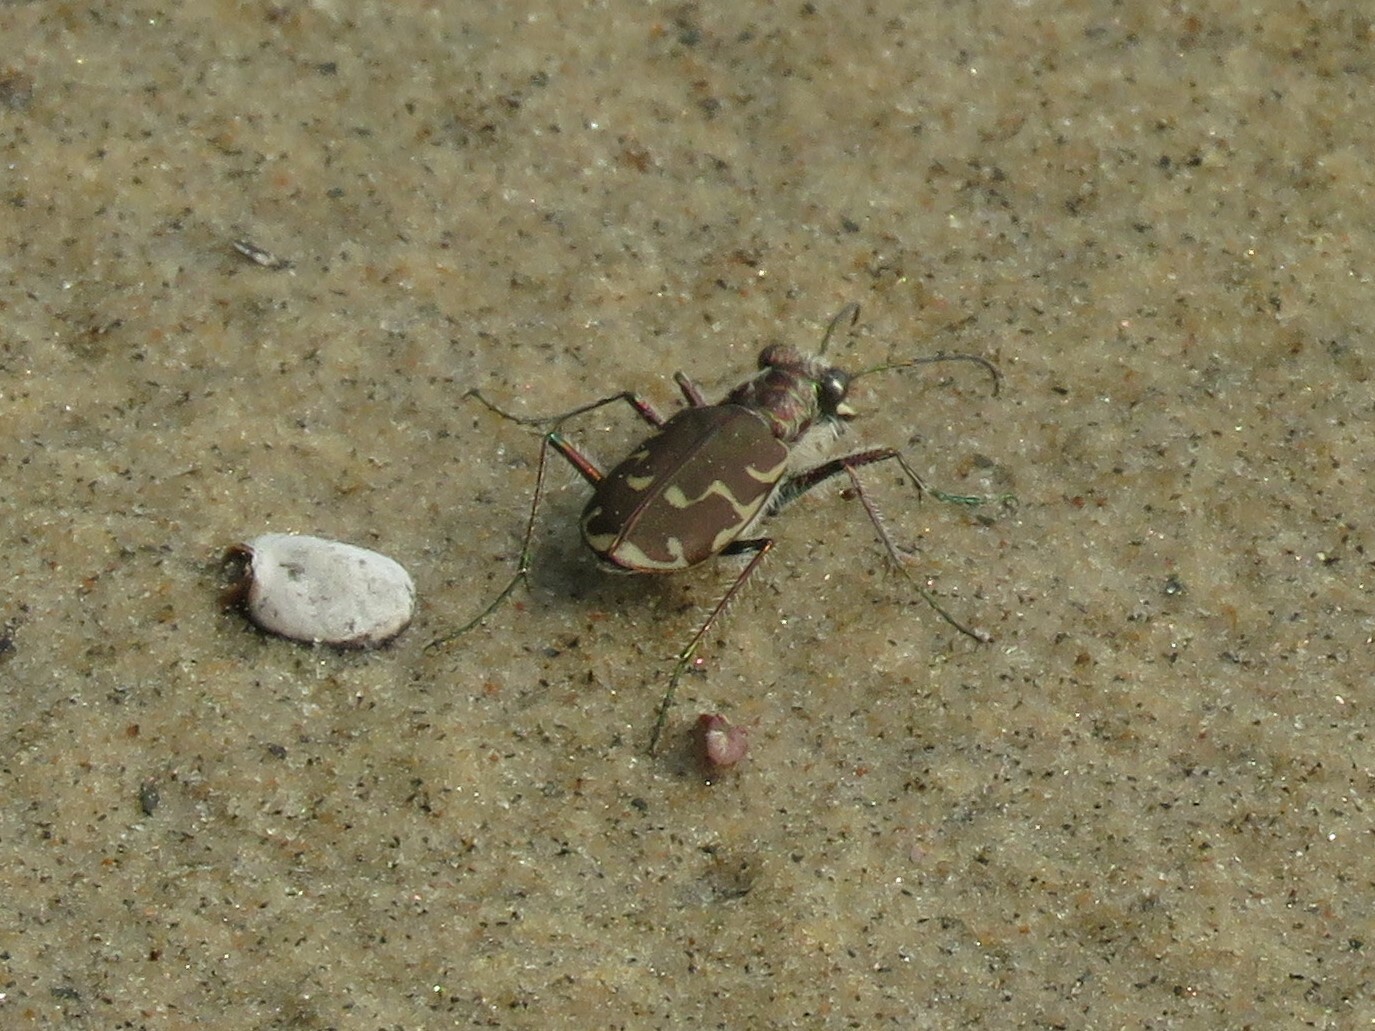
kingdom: Animalia
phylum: Arthropoda
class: Insecta
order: Coleoptera
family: Carabidae
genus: Cicindela
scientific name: Cicindela repanda
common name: Bronzed tiger beetle
